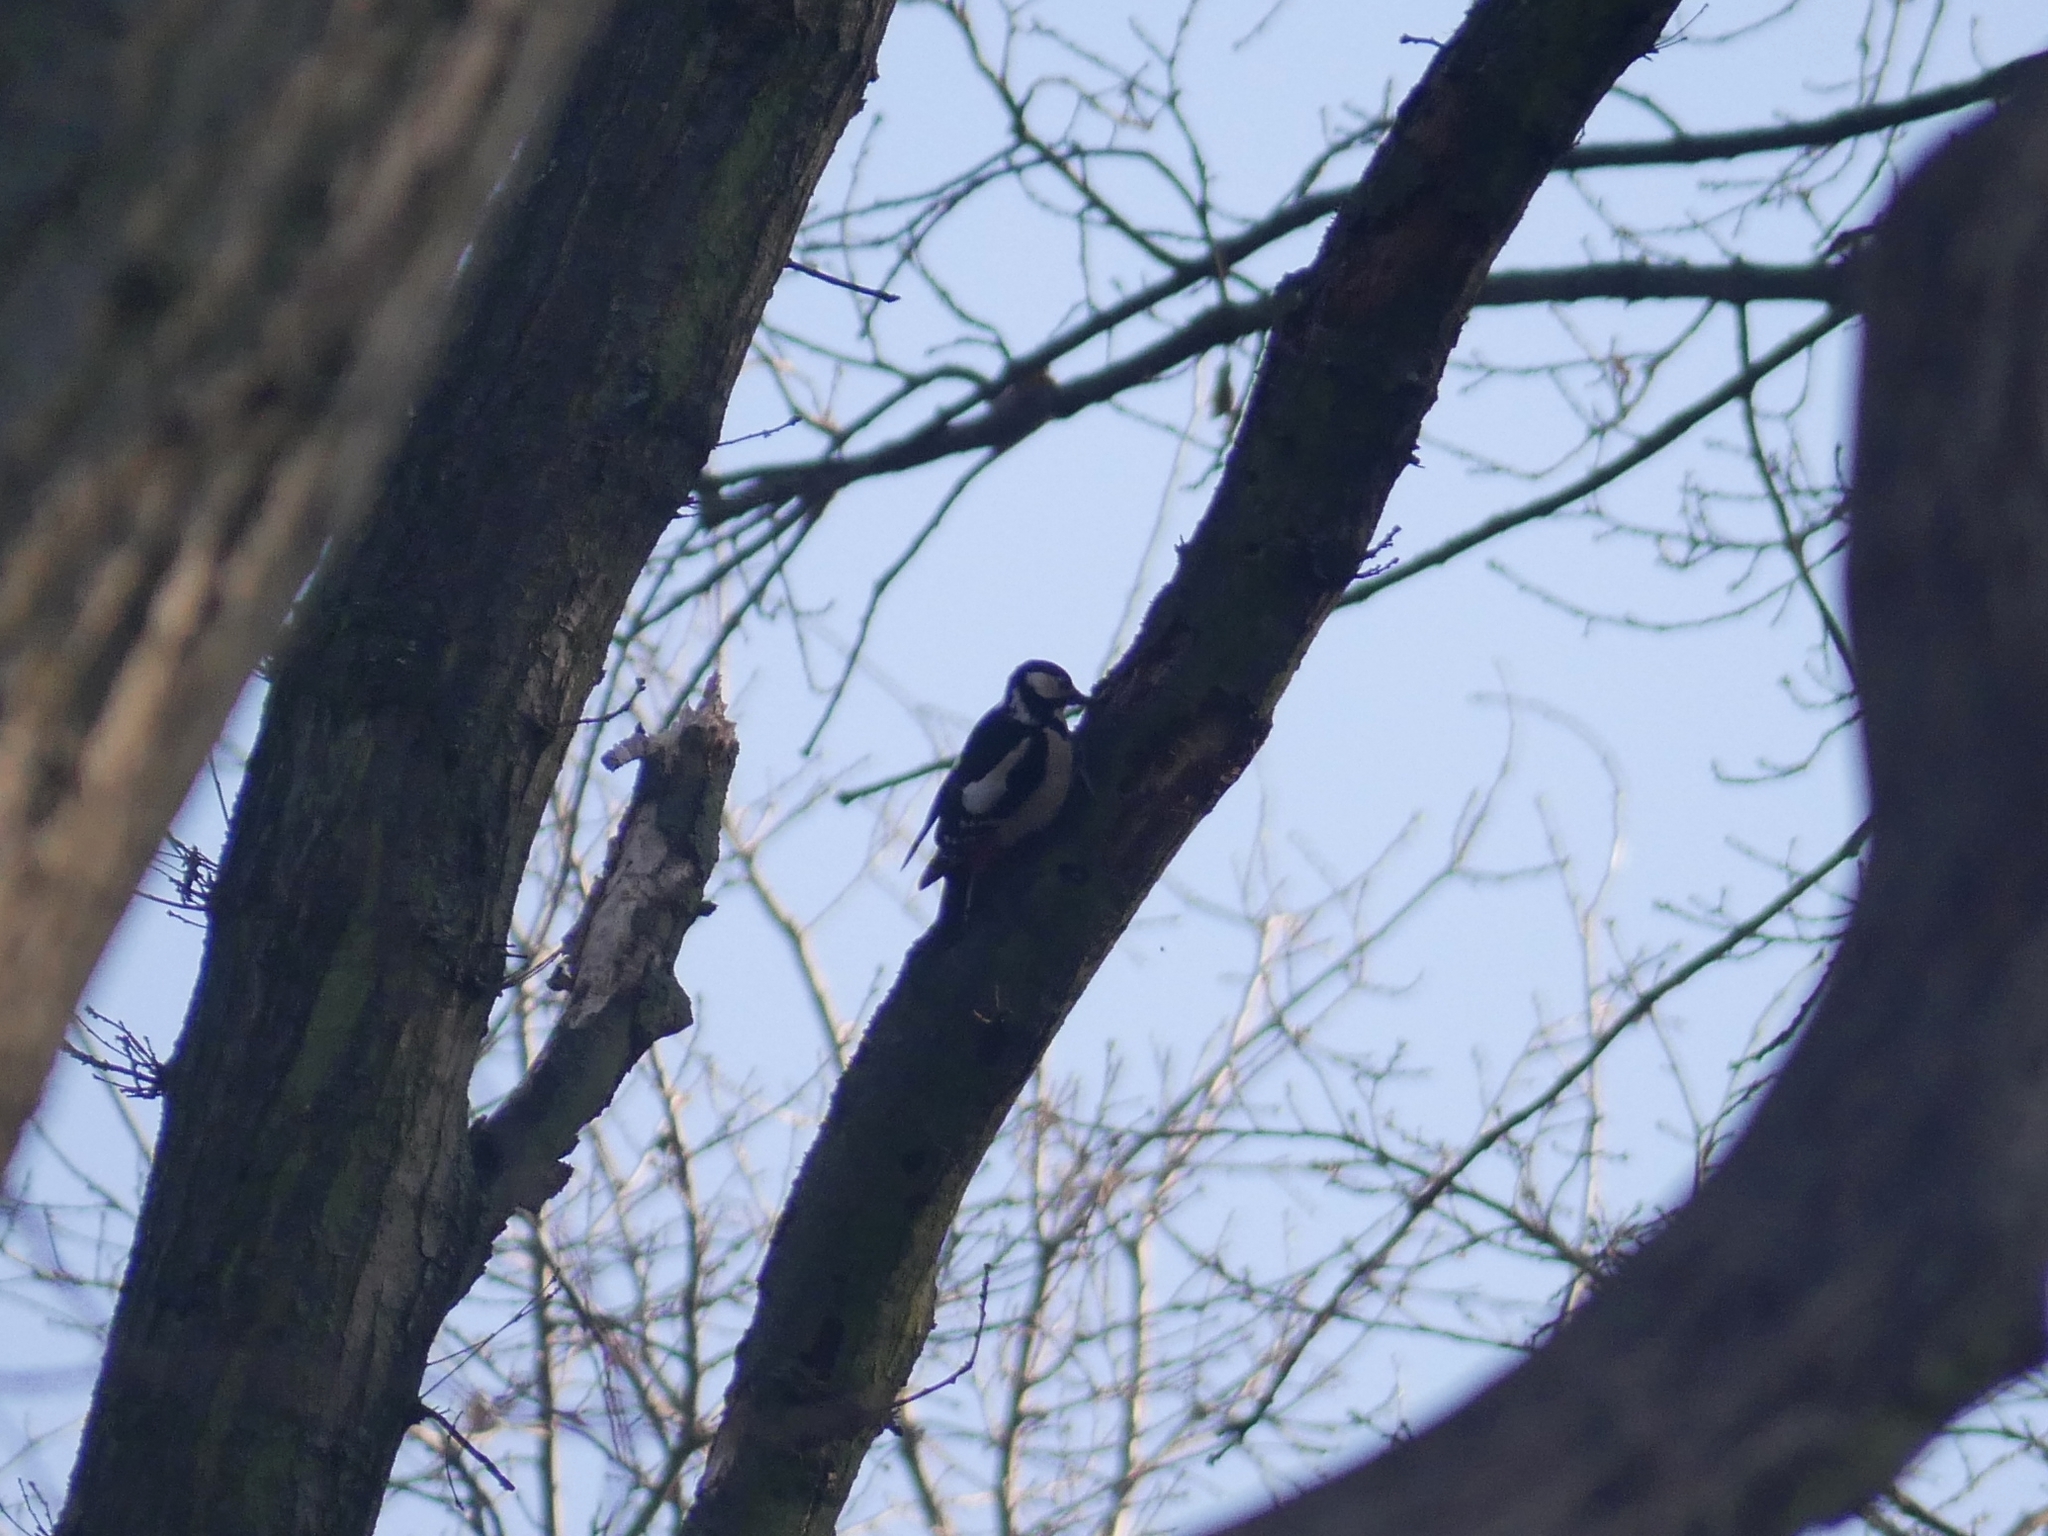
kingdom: Animalia
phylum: Chordata
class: Aves
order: Piciformes
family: Picidae
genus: Dendrocopos
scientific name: Dendrocopos major
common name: Great spotted woodpecker
